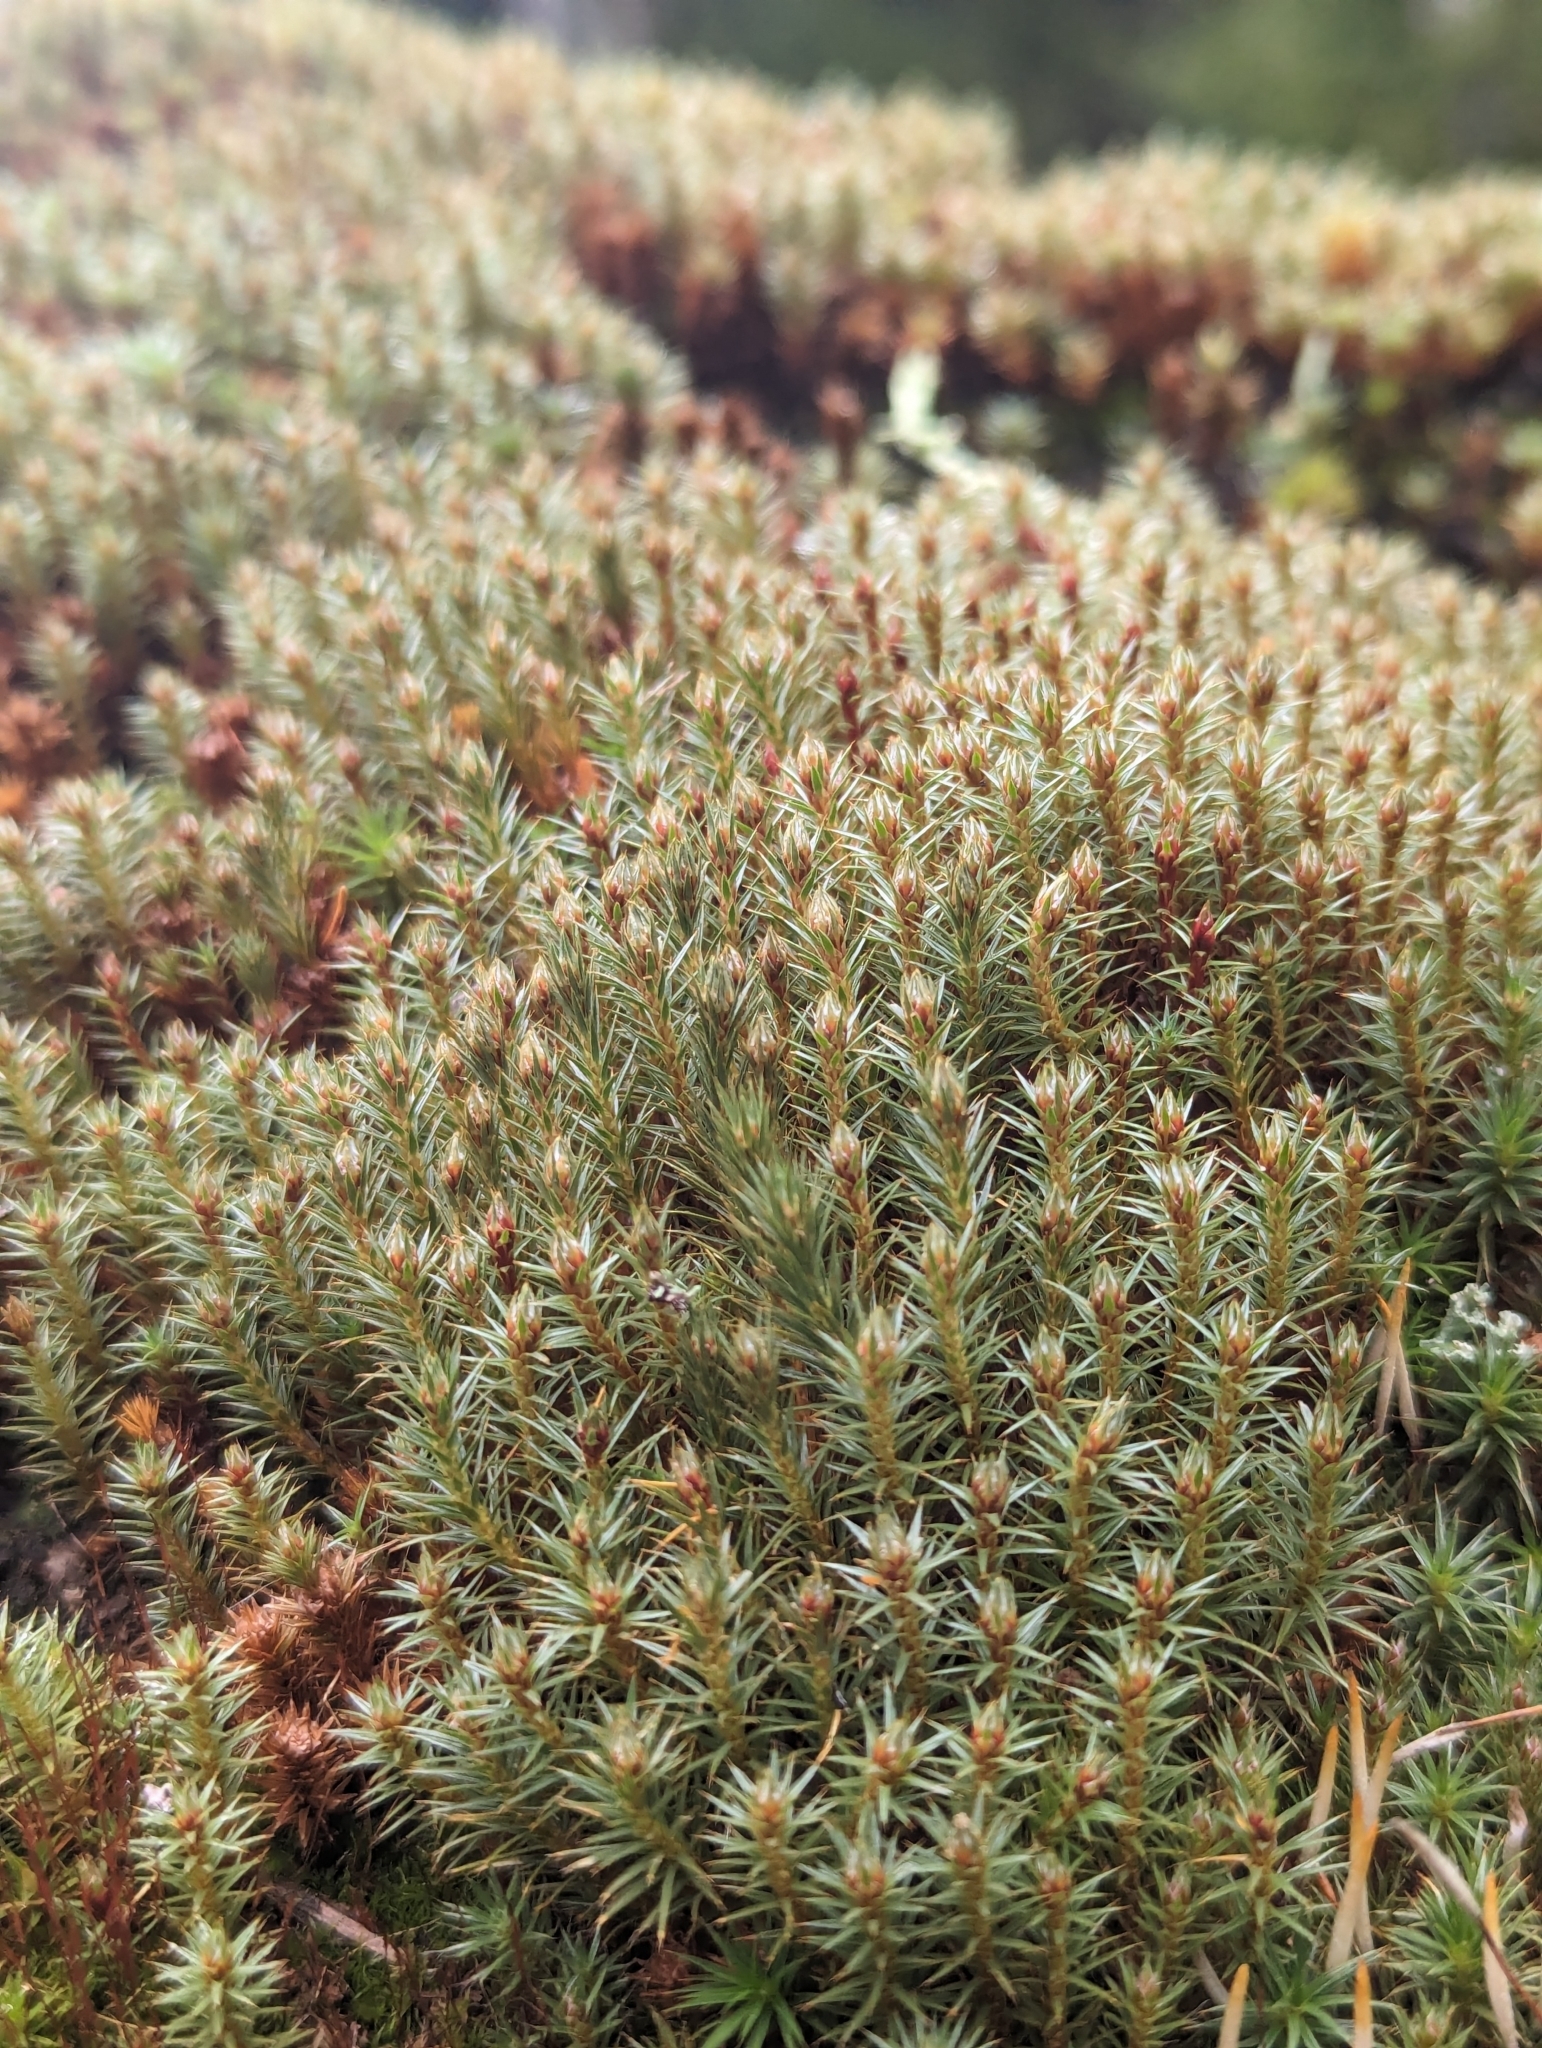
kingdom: Plantae
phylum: Bryophyta
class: Polytrichopsida
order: Polytrichales
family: Polytrichaceae
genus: Polytrichum
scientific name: Polytrichum juniperinum
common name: Juniper haircap moss
